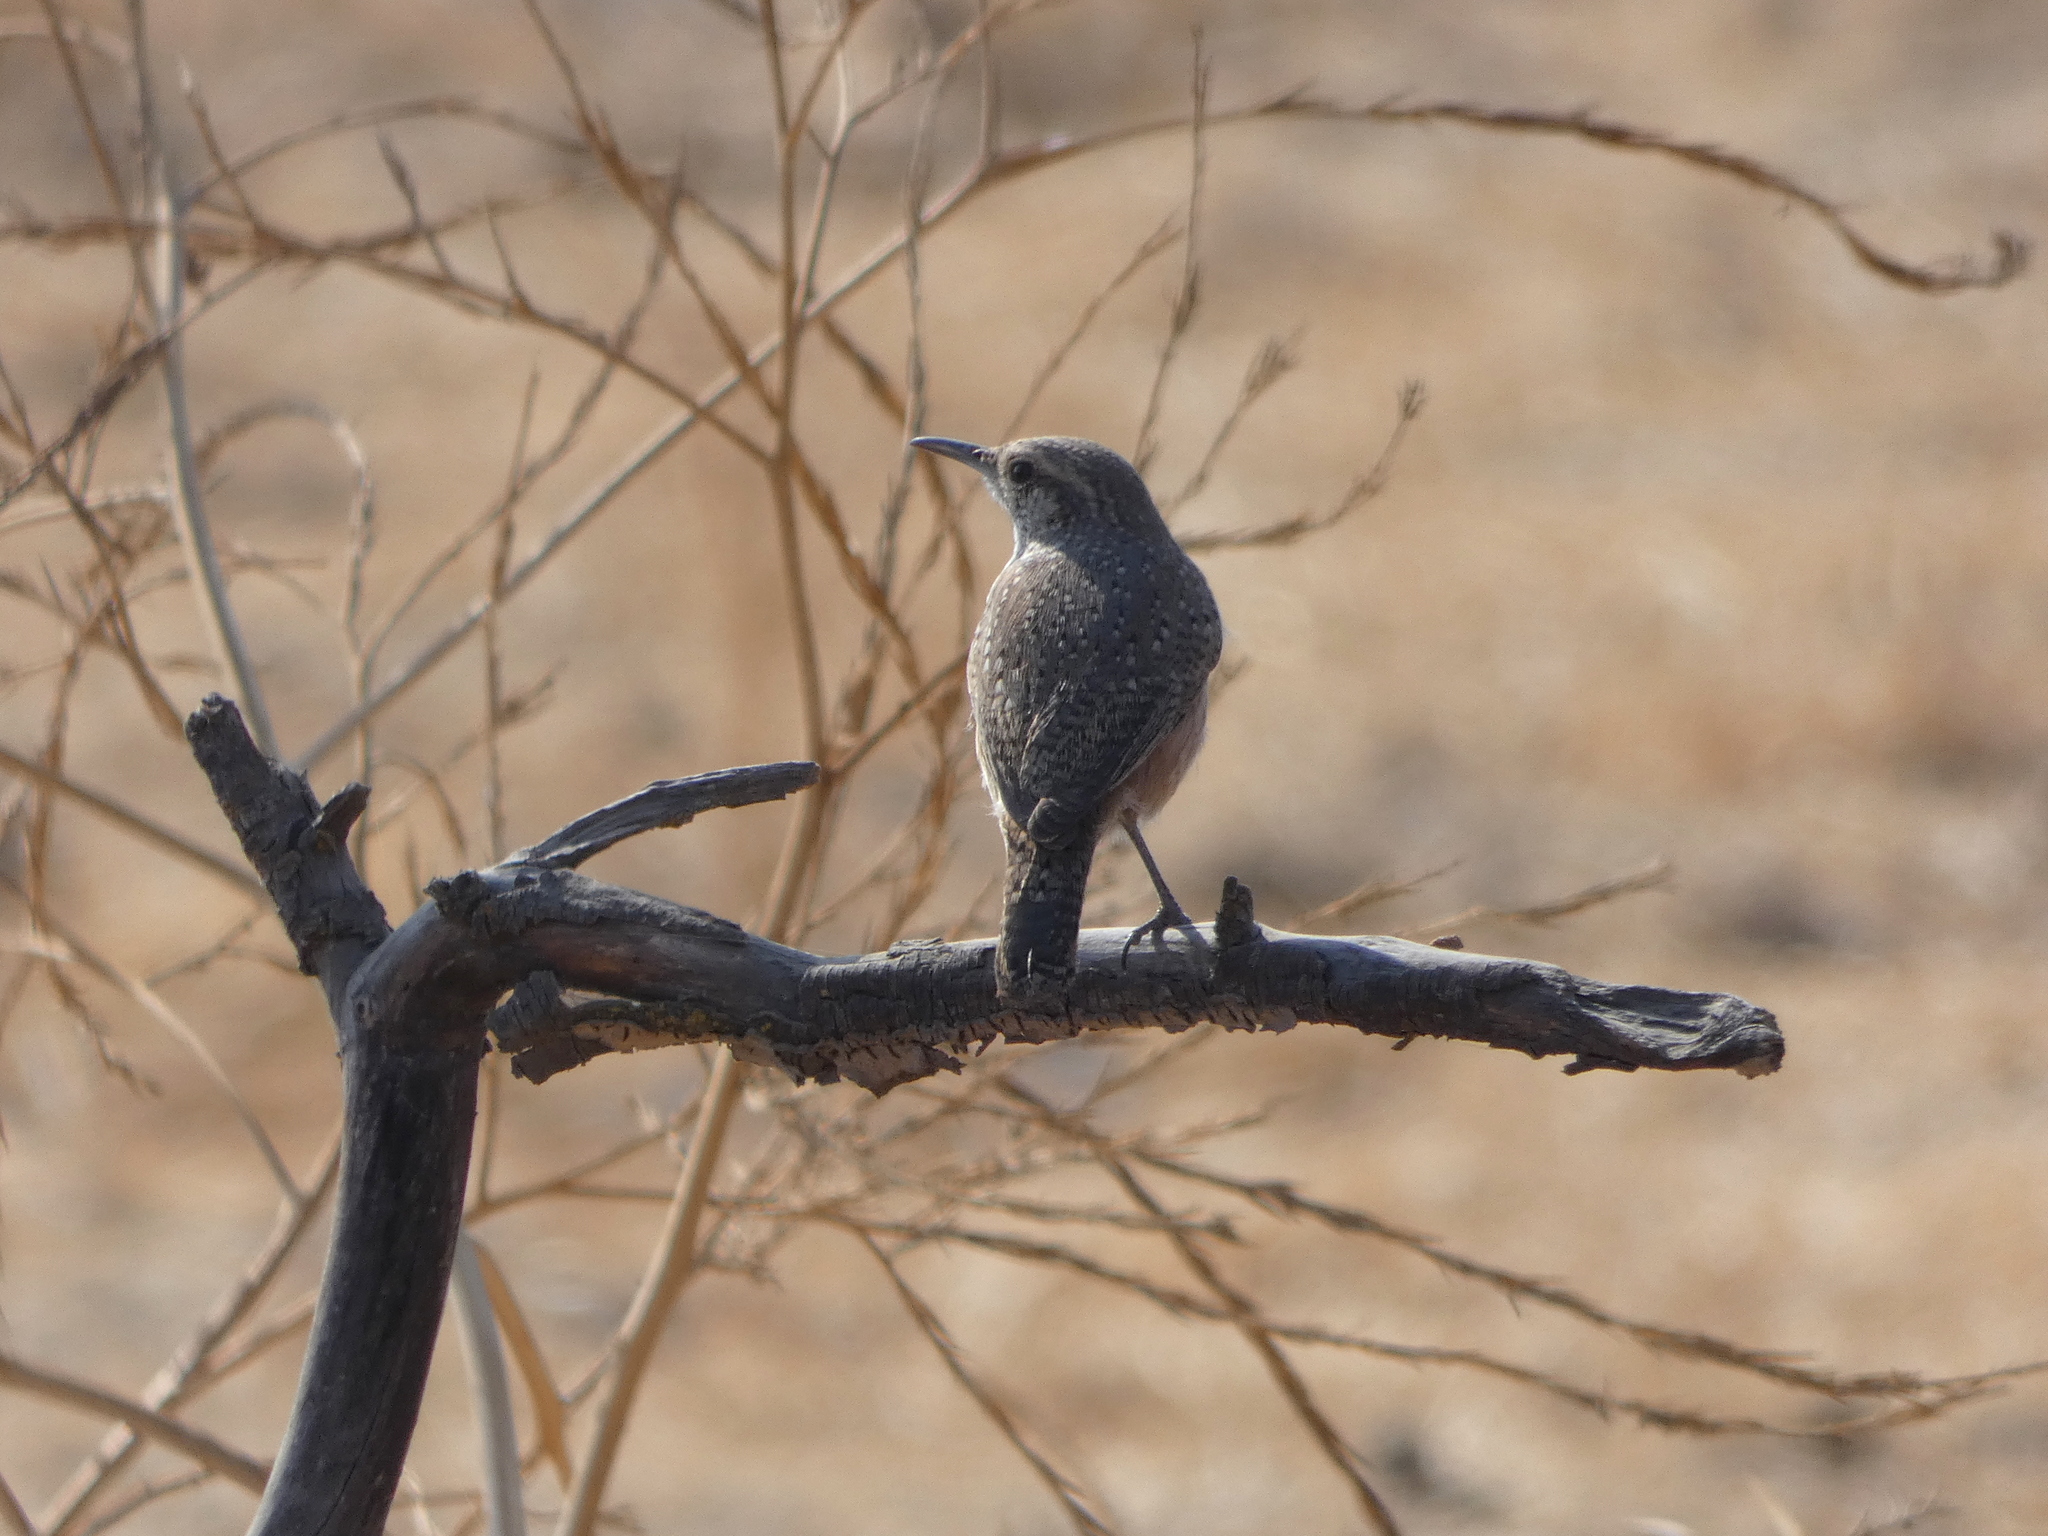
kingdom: Animalia
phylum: Chordata
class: Aves
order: Passeriformes
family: Troglodytidae
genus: Salpinctes
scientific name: Salpinctes obsoletus
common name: Rock wren
